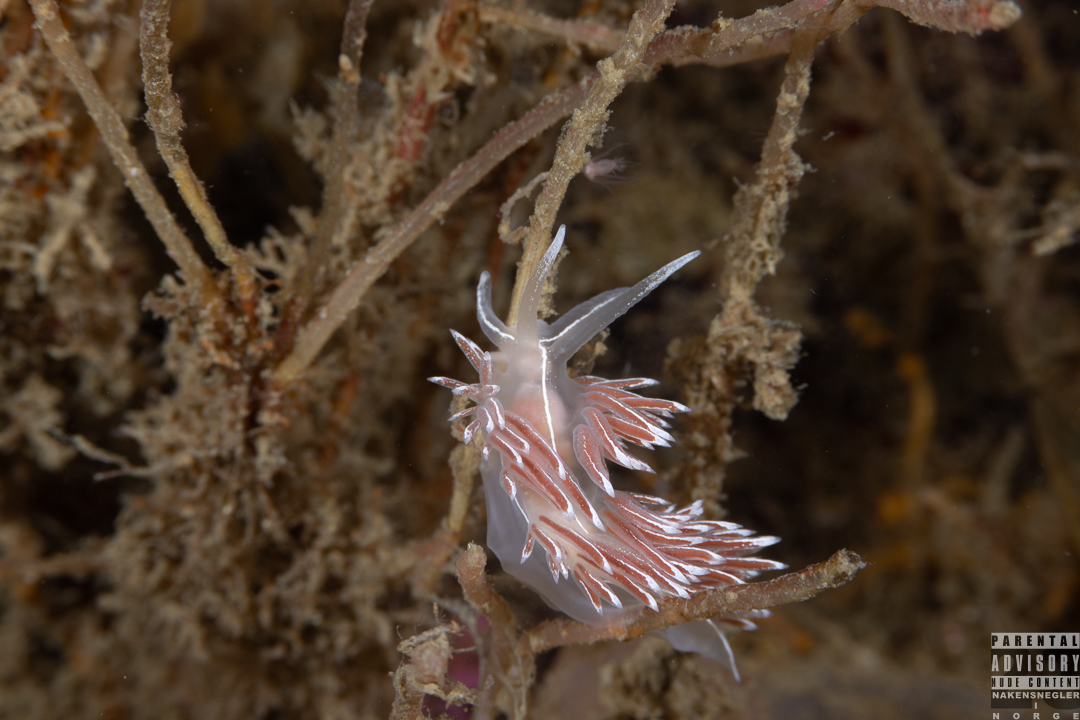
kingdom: Animalia
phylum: Mollusca
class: Gastropoda
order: Nudibranchia
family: Coryphellidae
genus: Coryphella
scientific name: Coryphella lineata
